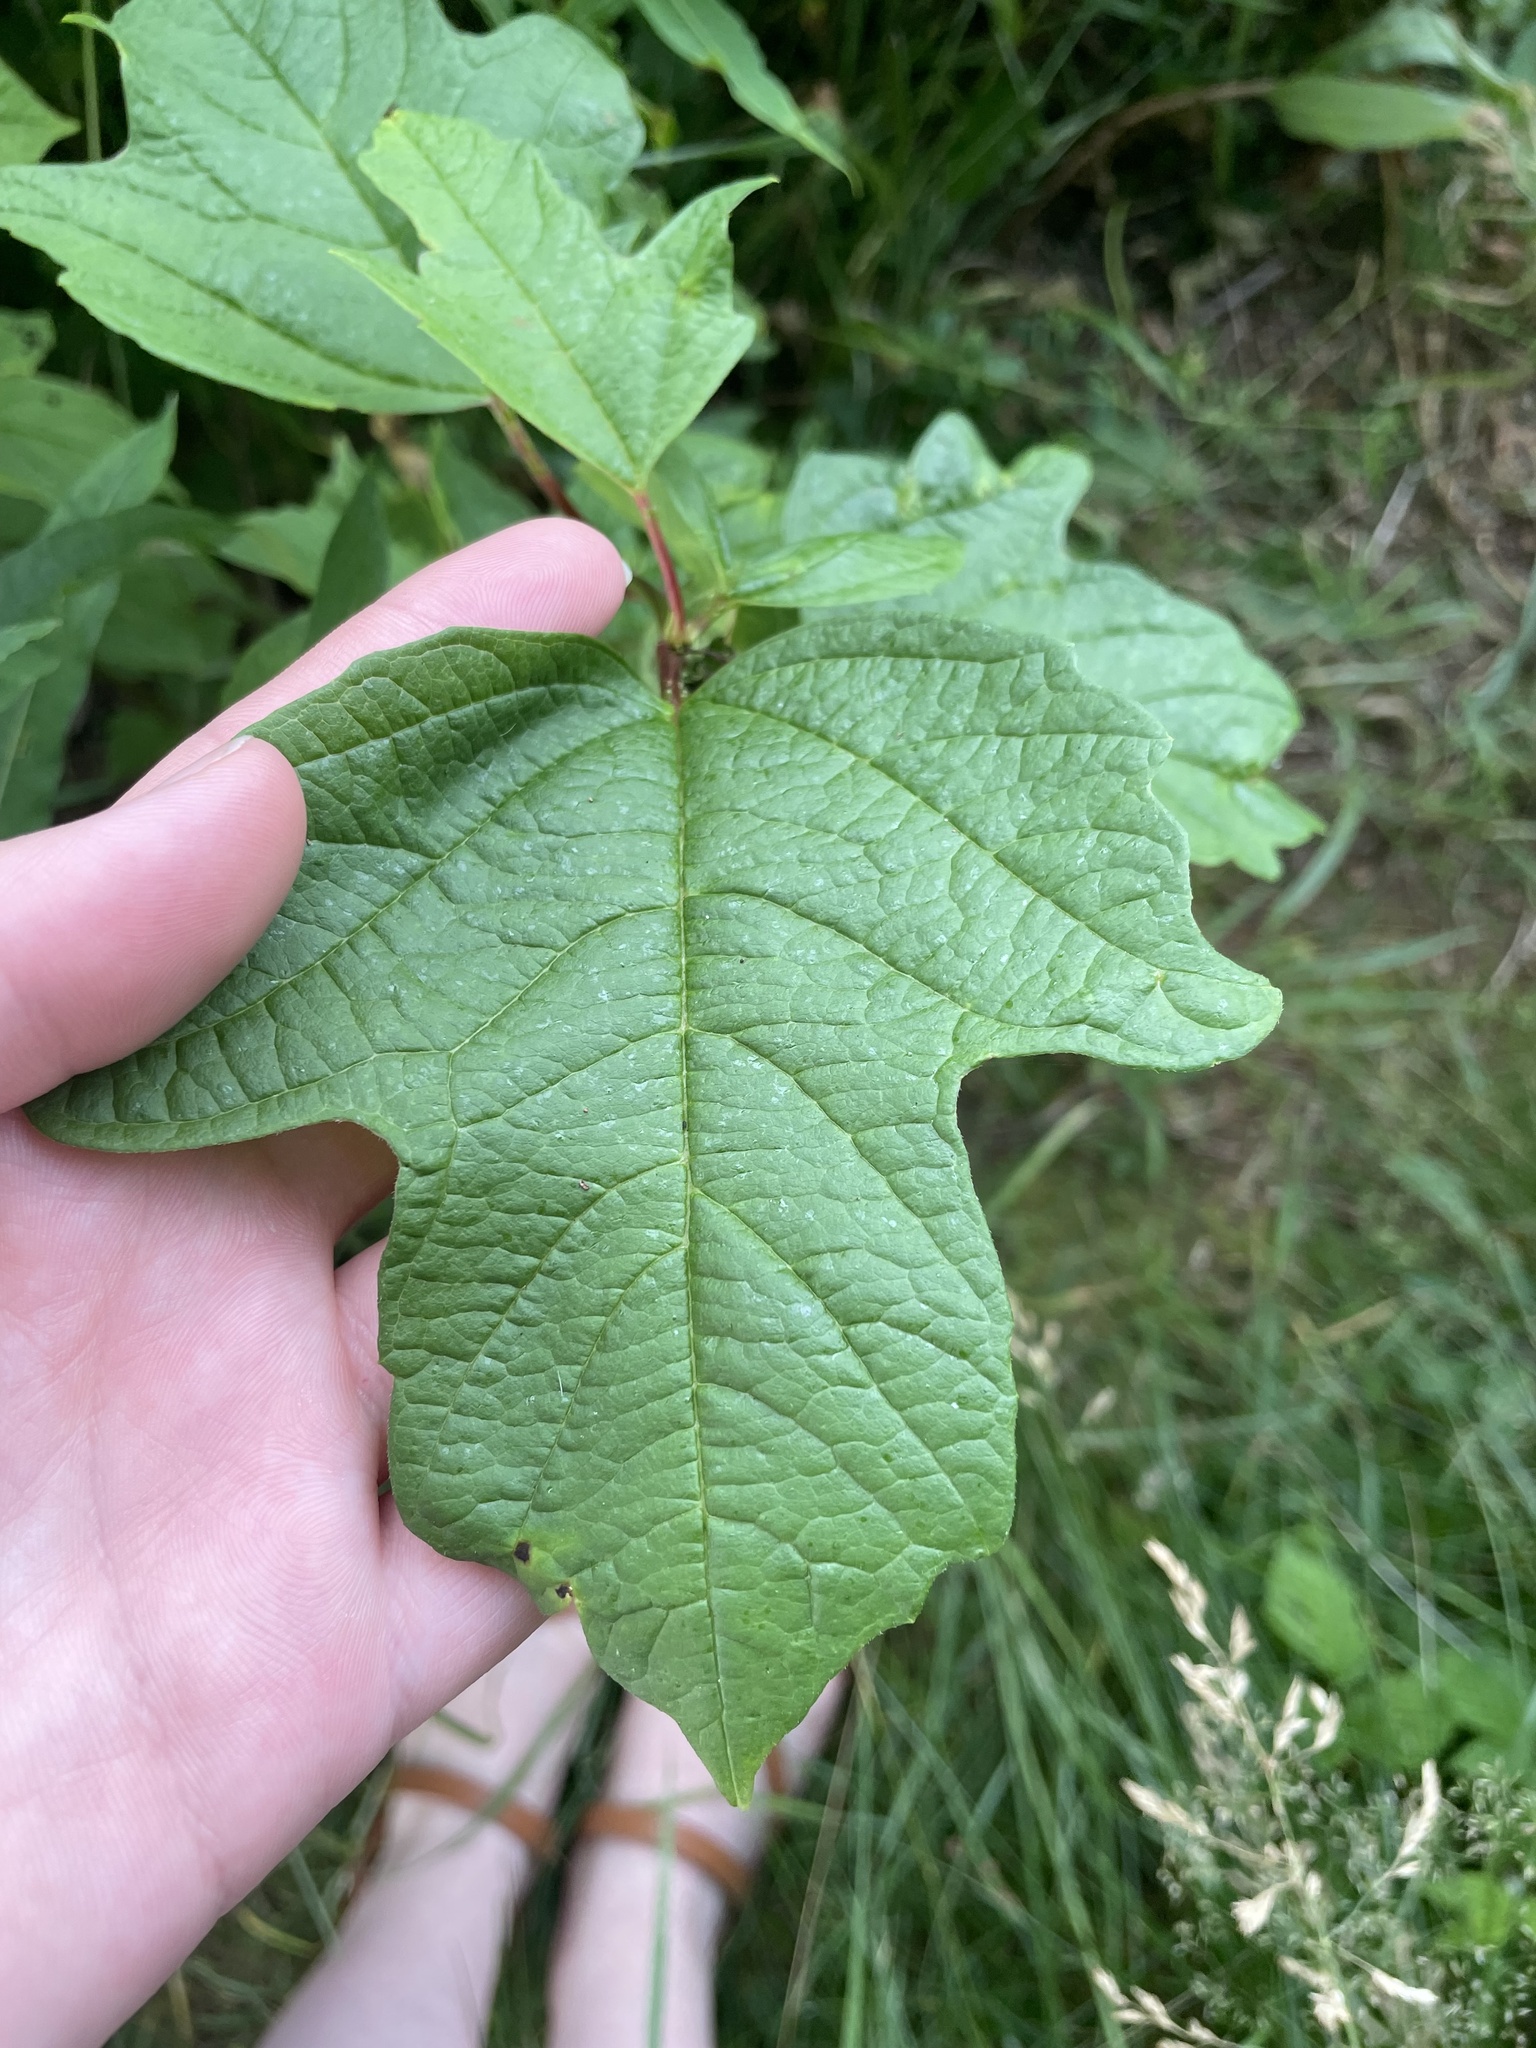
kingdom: Plantae
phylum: Tracheophyta
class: Magnoliopsida
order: Dipsacales
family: Viburnaceae
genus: Viburnum
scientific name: Viburnum opulus
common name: Guelder-rose
